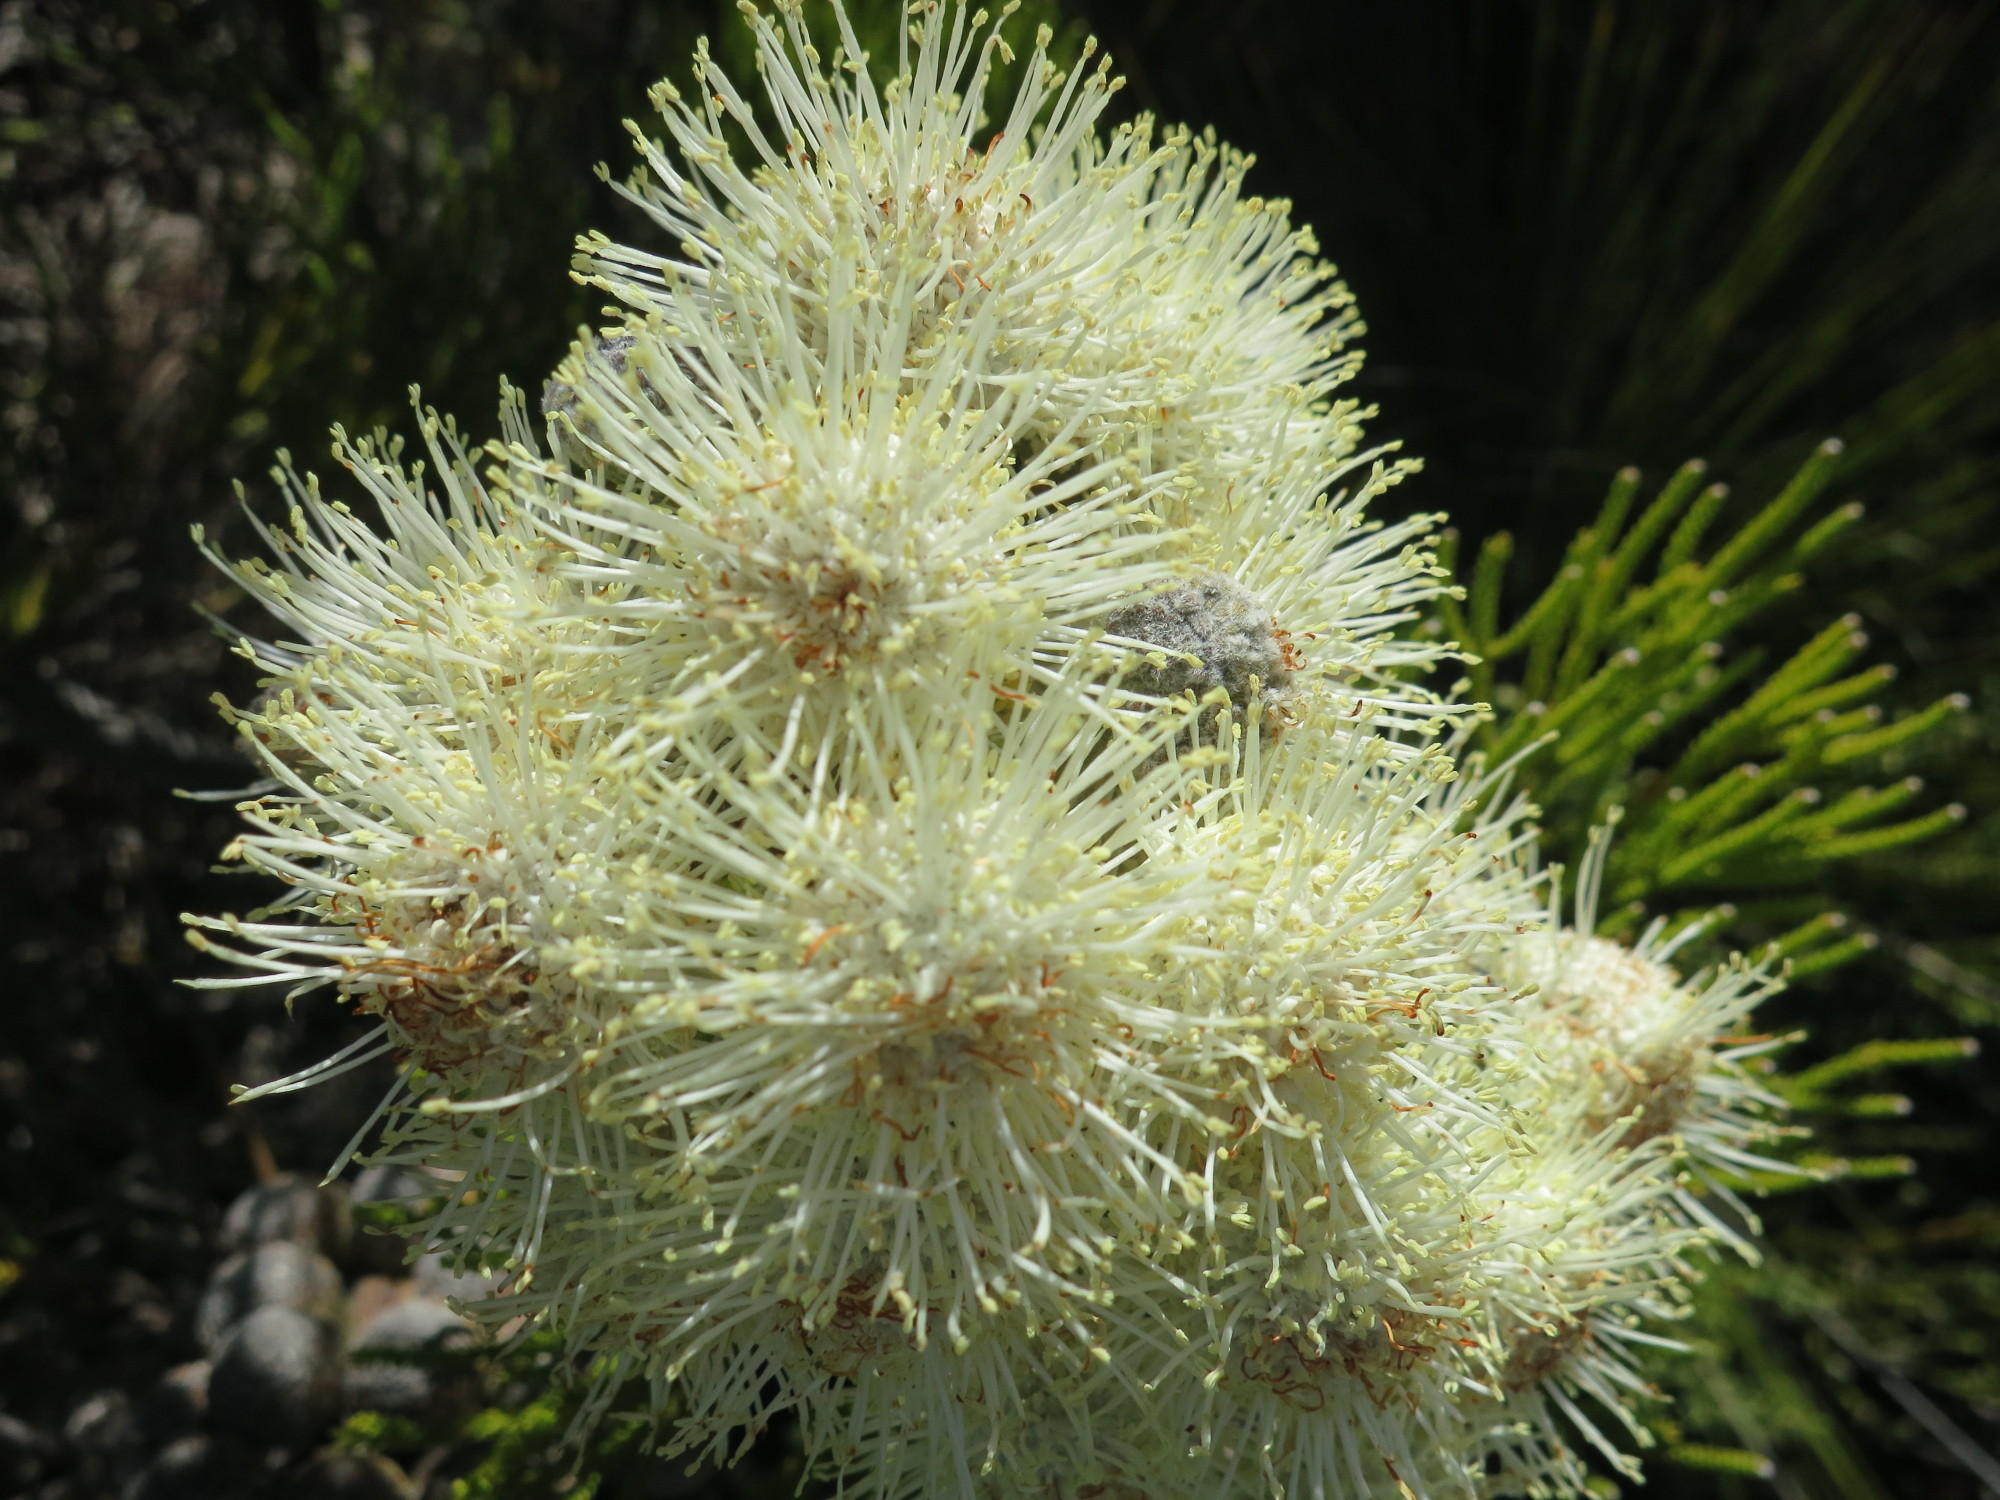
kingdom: Plantae
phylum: Tracheophyta
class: Magnoliopsida
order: Bruniales
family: Bruniaceae
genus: Brunia
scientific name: Brunia noduliflora
